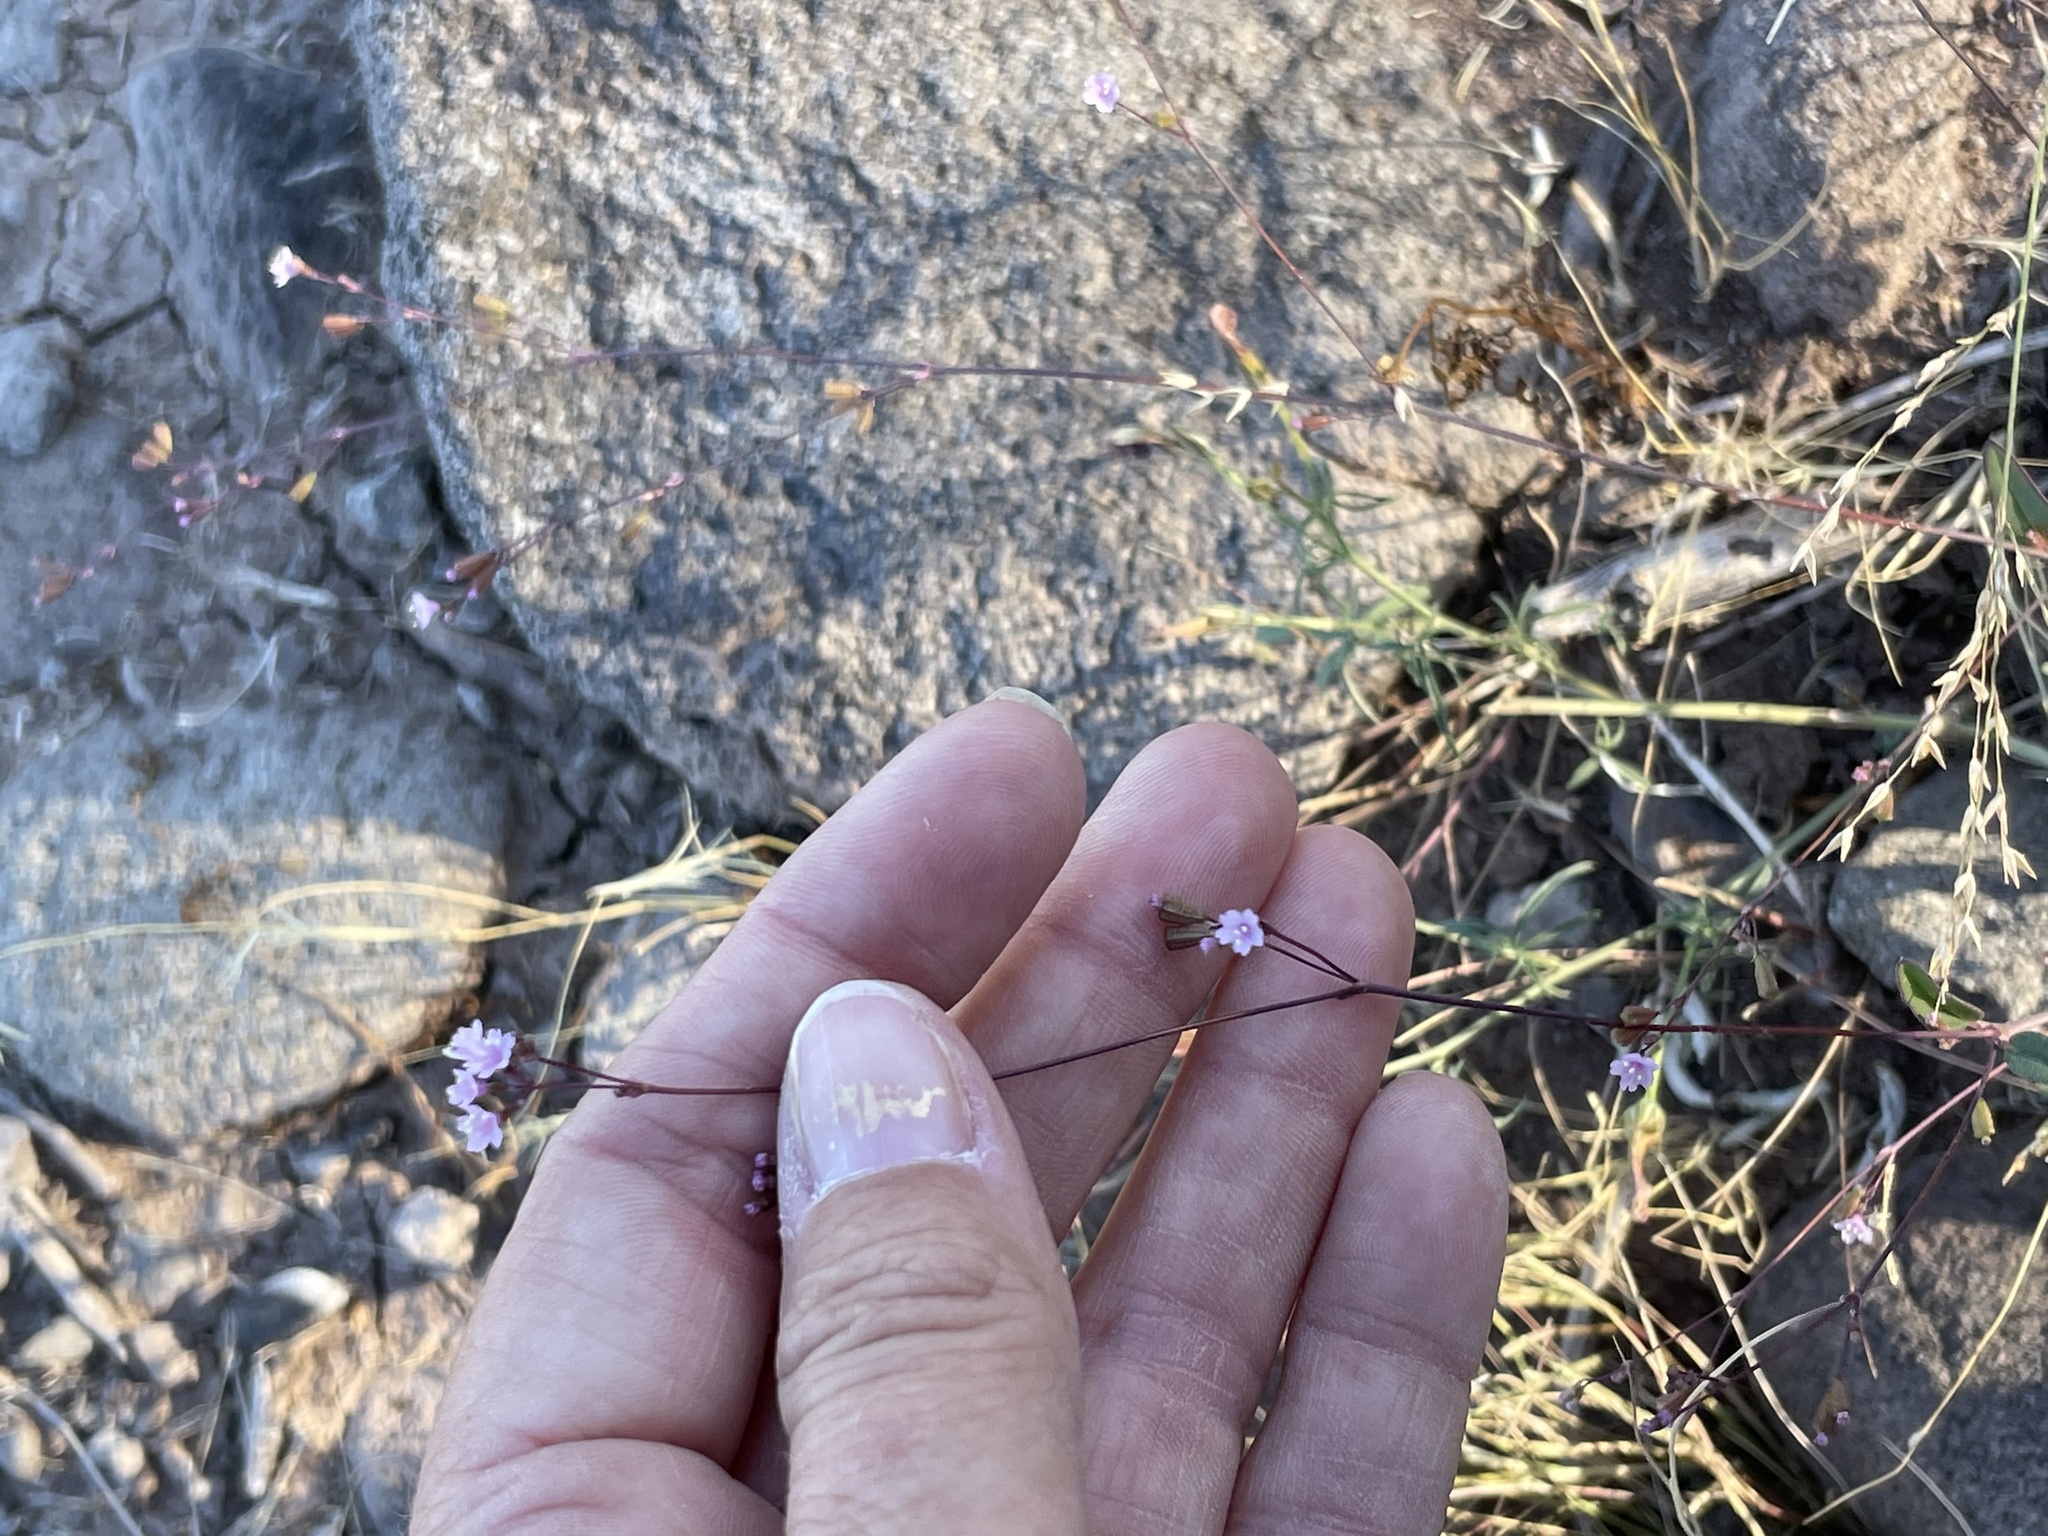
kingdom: Plantae
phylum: Tracheophyta
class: Magnoliopsida
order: Caryophyllales
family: Nyctaginaceae
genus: Boerhavia
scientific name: Boerhavia triquetra
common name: Creeping sticky-stem
